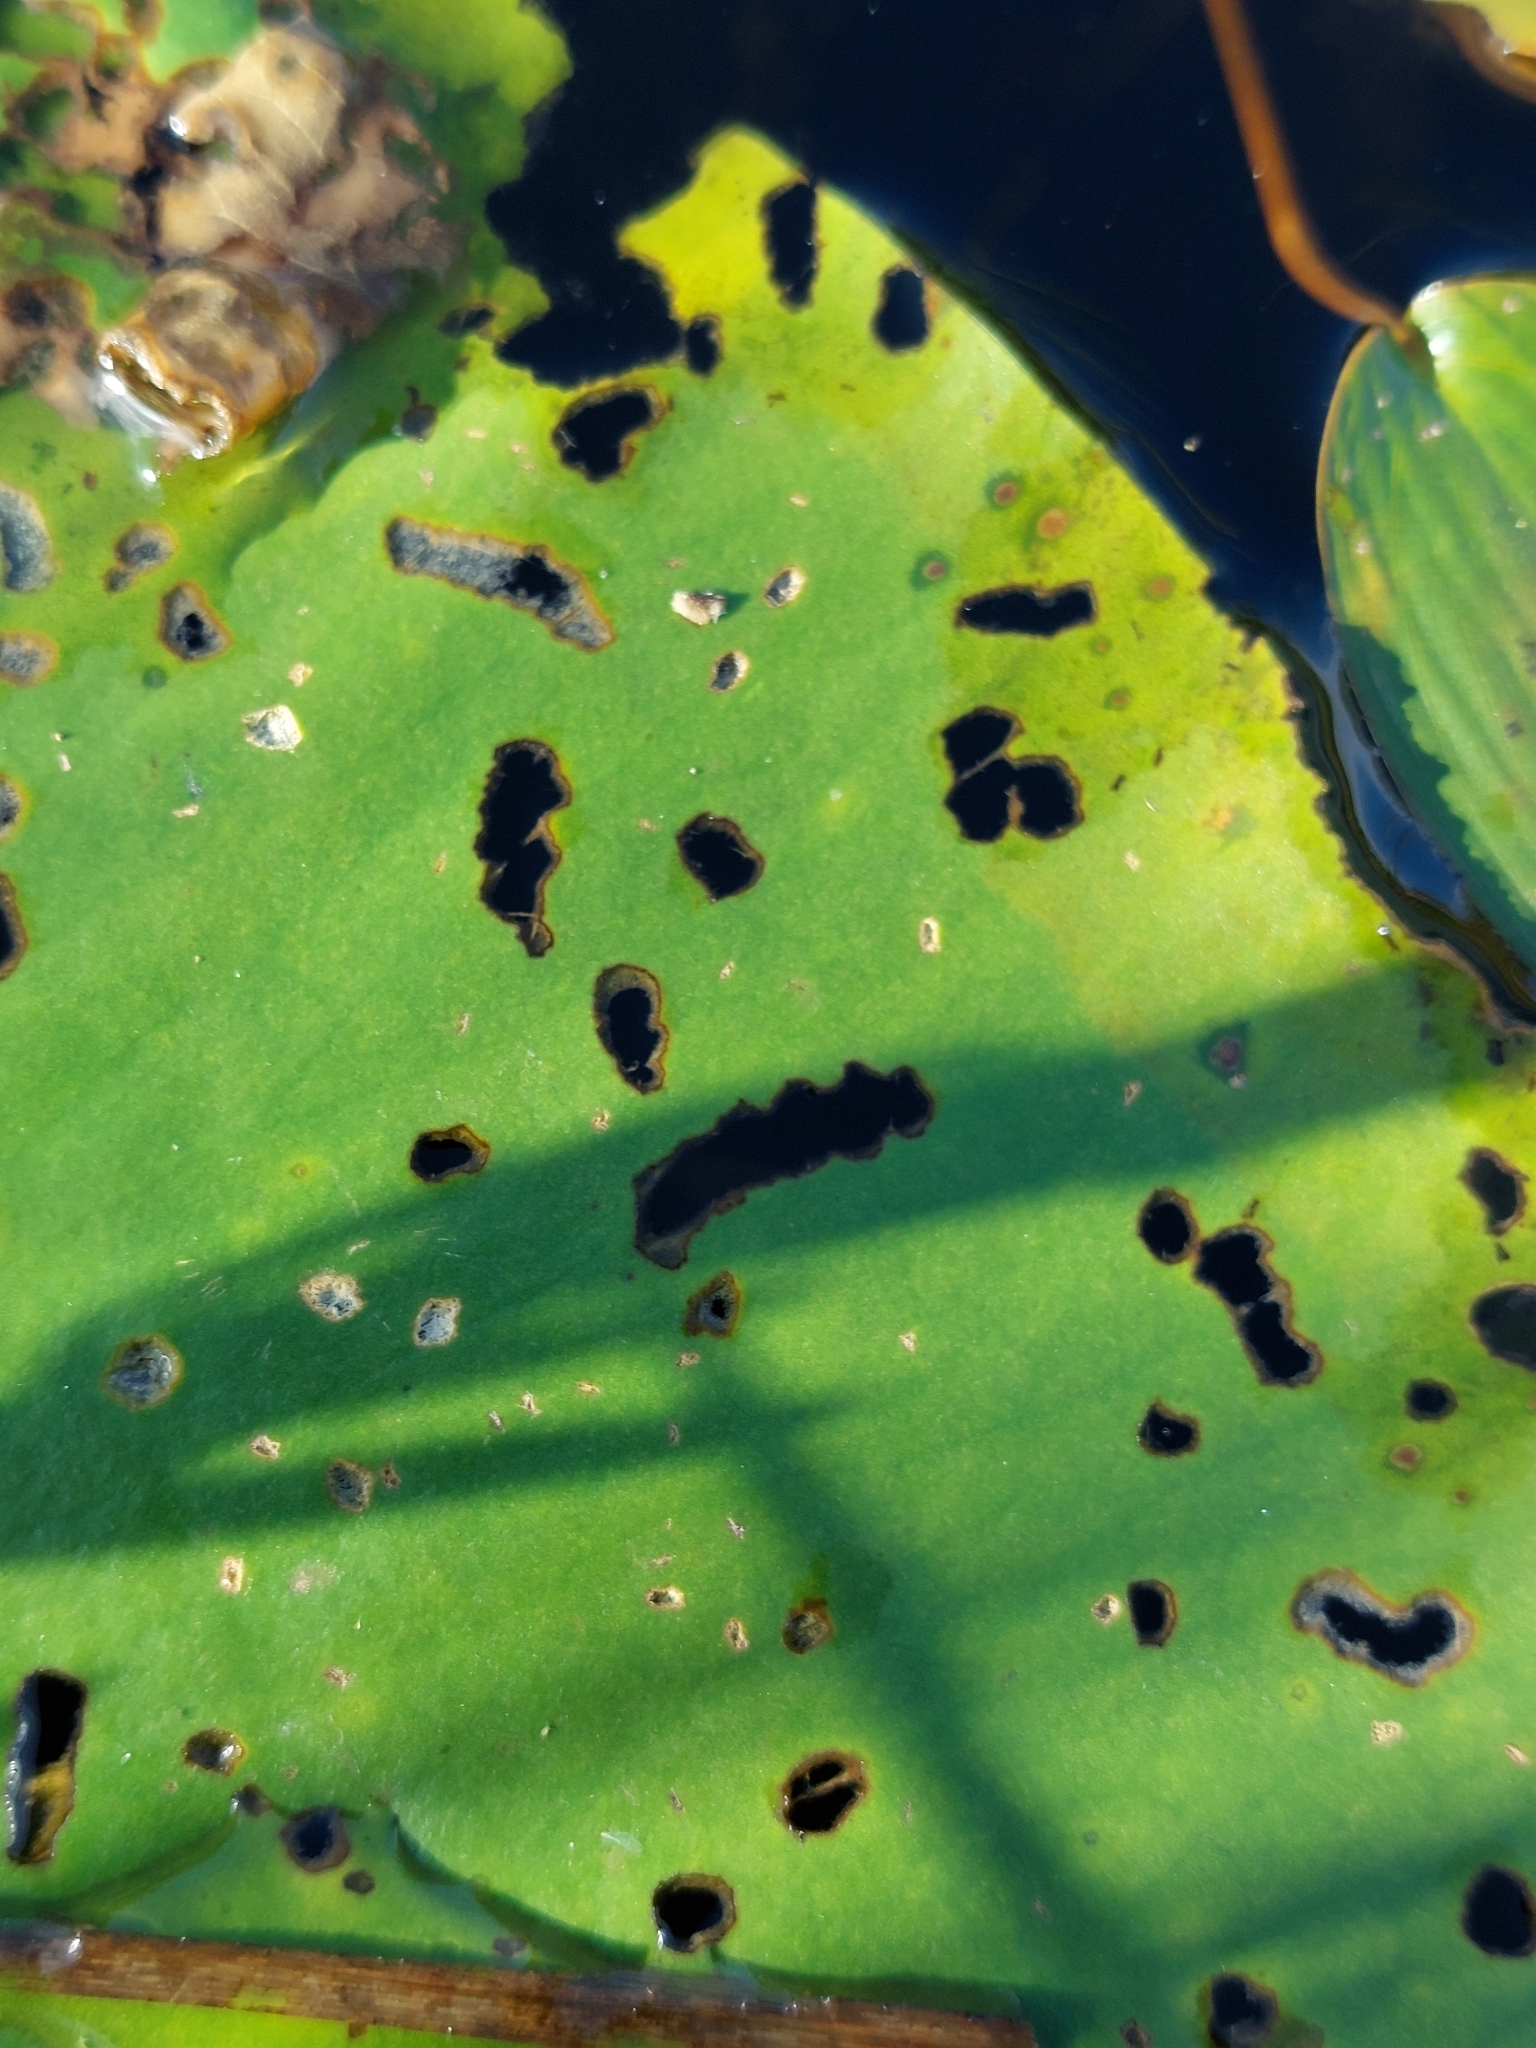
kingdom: Animalia
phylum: Arthropoda
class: Insecta
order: Coleoptera
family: Chrysomelidae
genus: Galerucella
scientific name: Galerucella nymphaeae
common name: Leaf beetle
